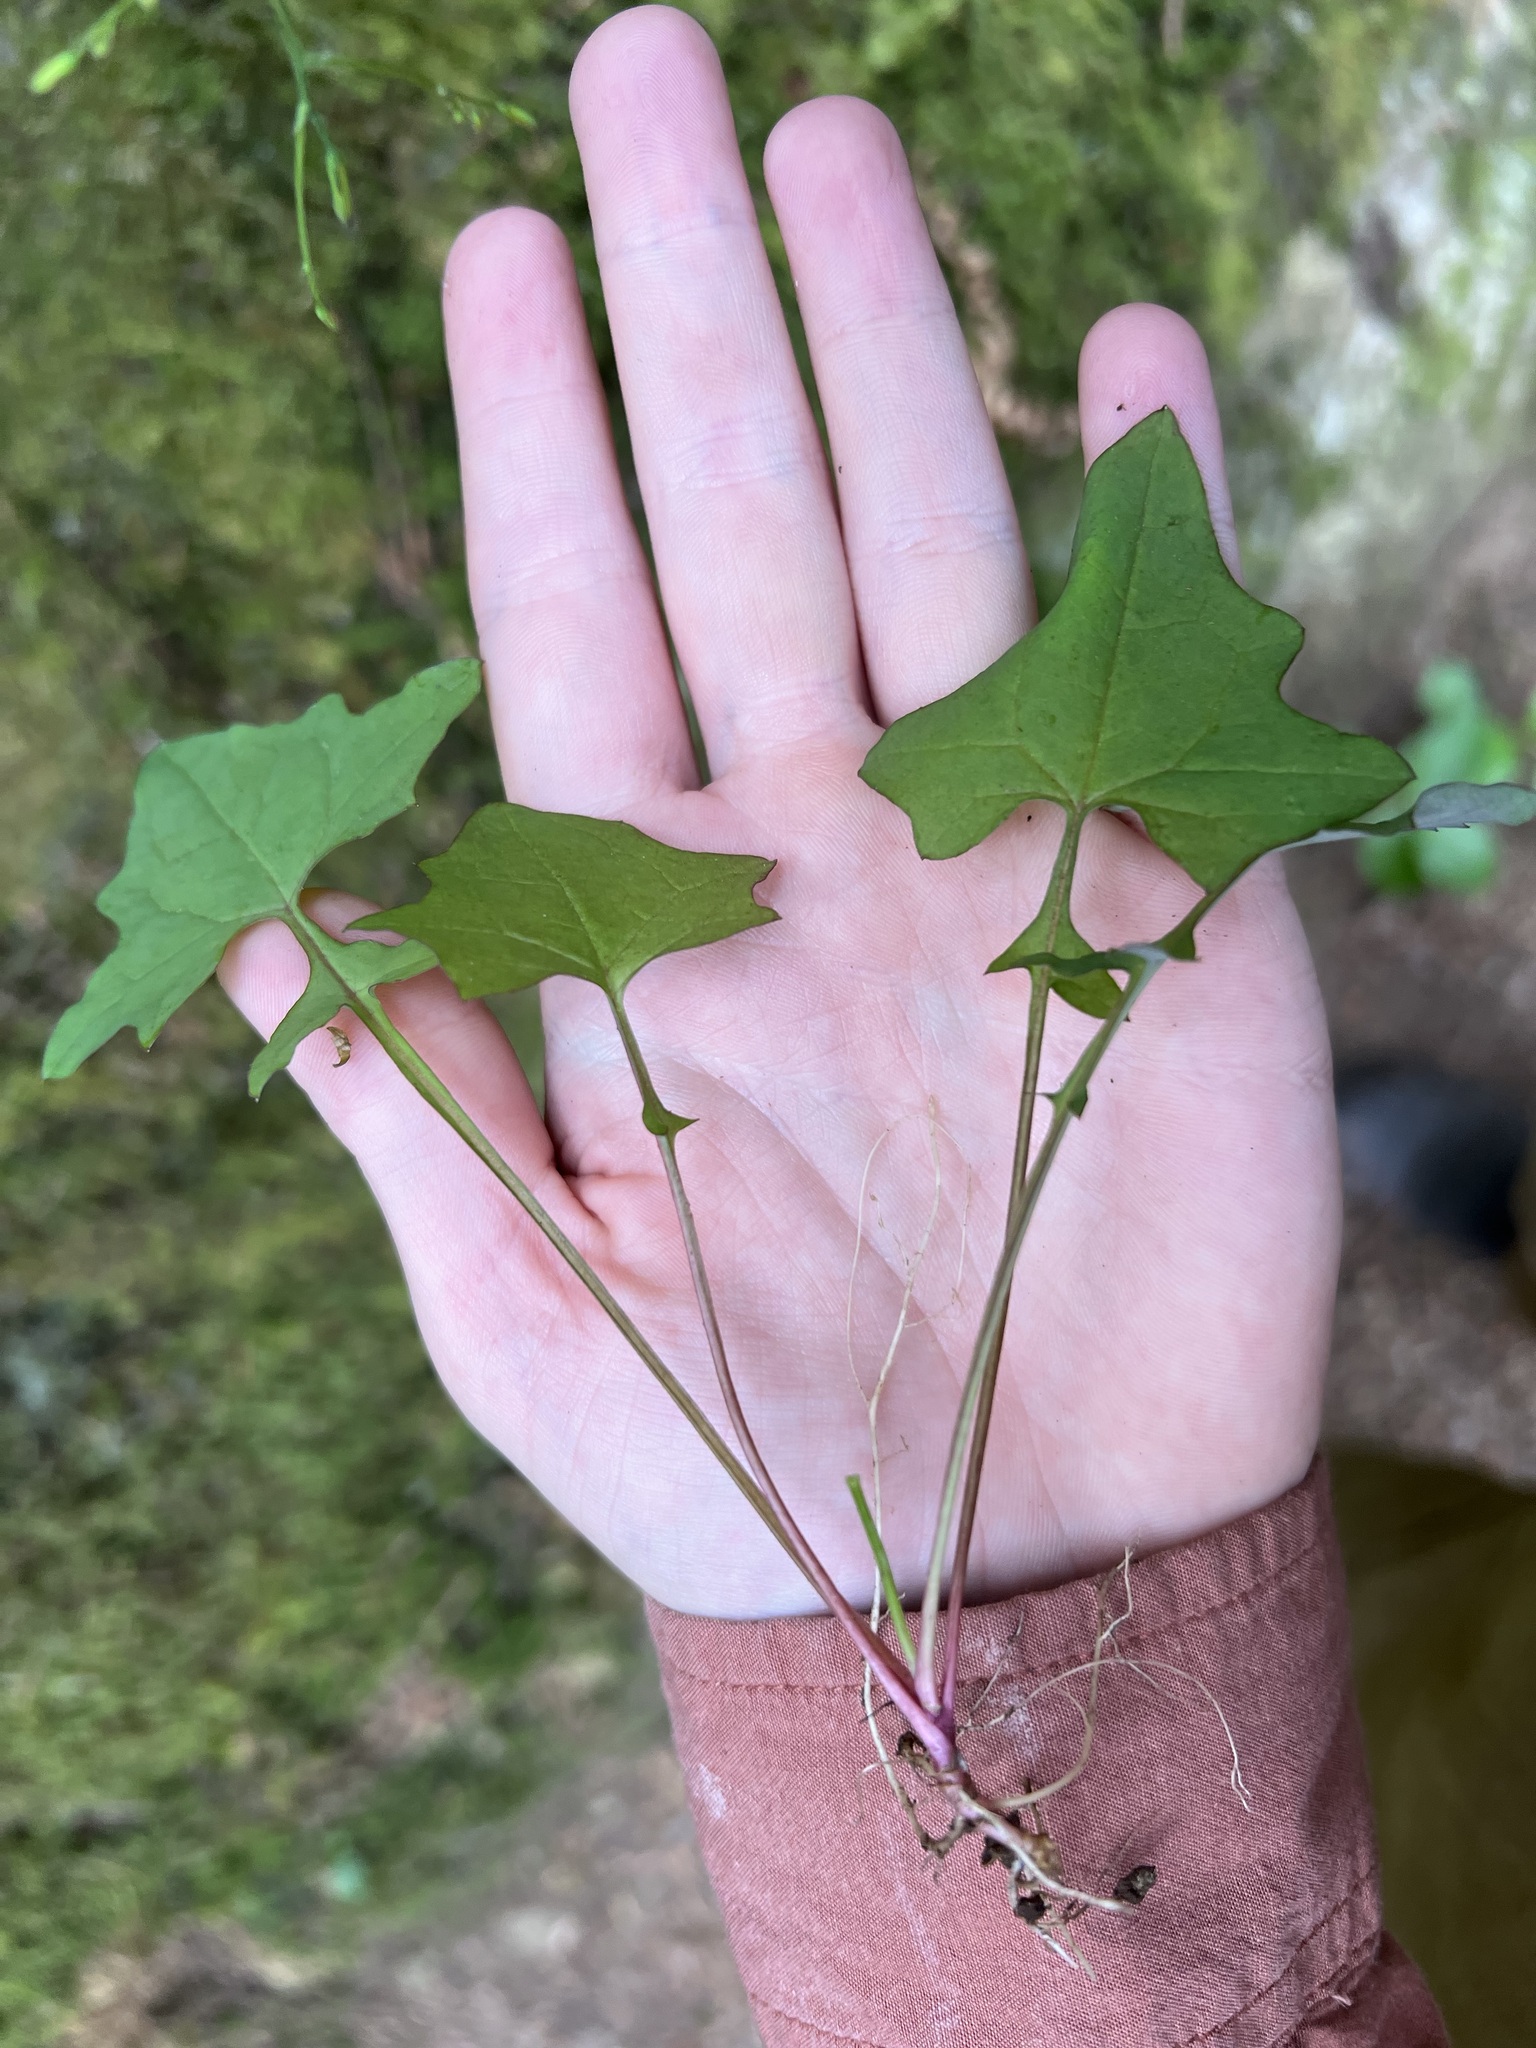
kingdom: Plantae
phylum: Tracheophyta
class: Magnoliopsida
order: Asterales
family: Asteraceae
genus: Mycelis
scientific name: Mycelis muralis
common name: Wall lettuce
